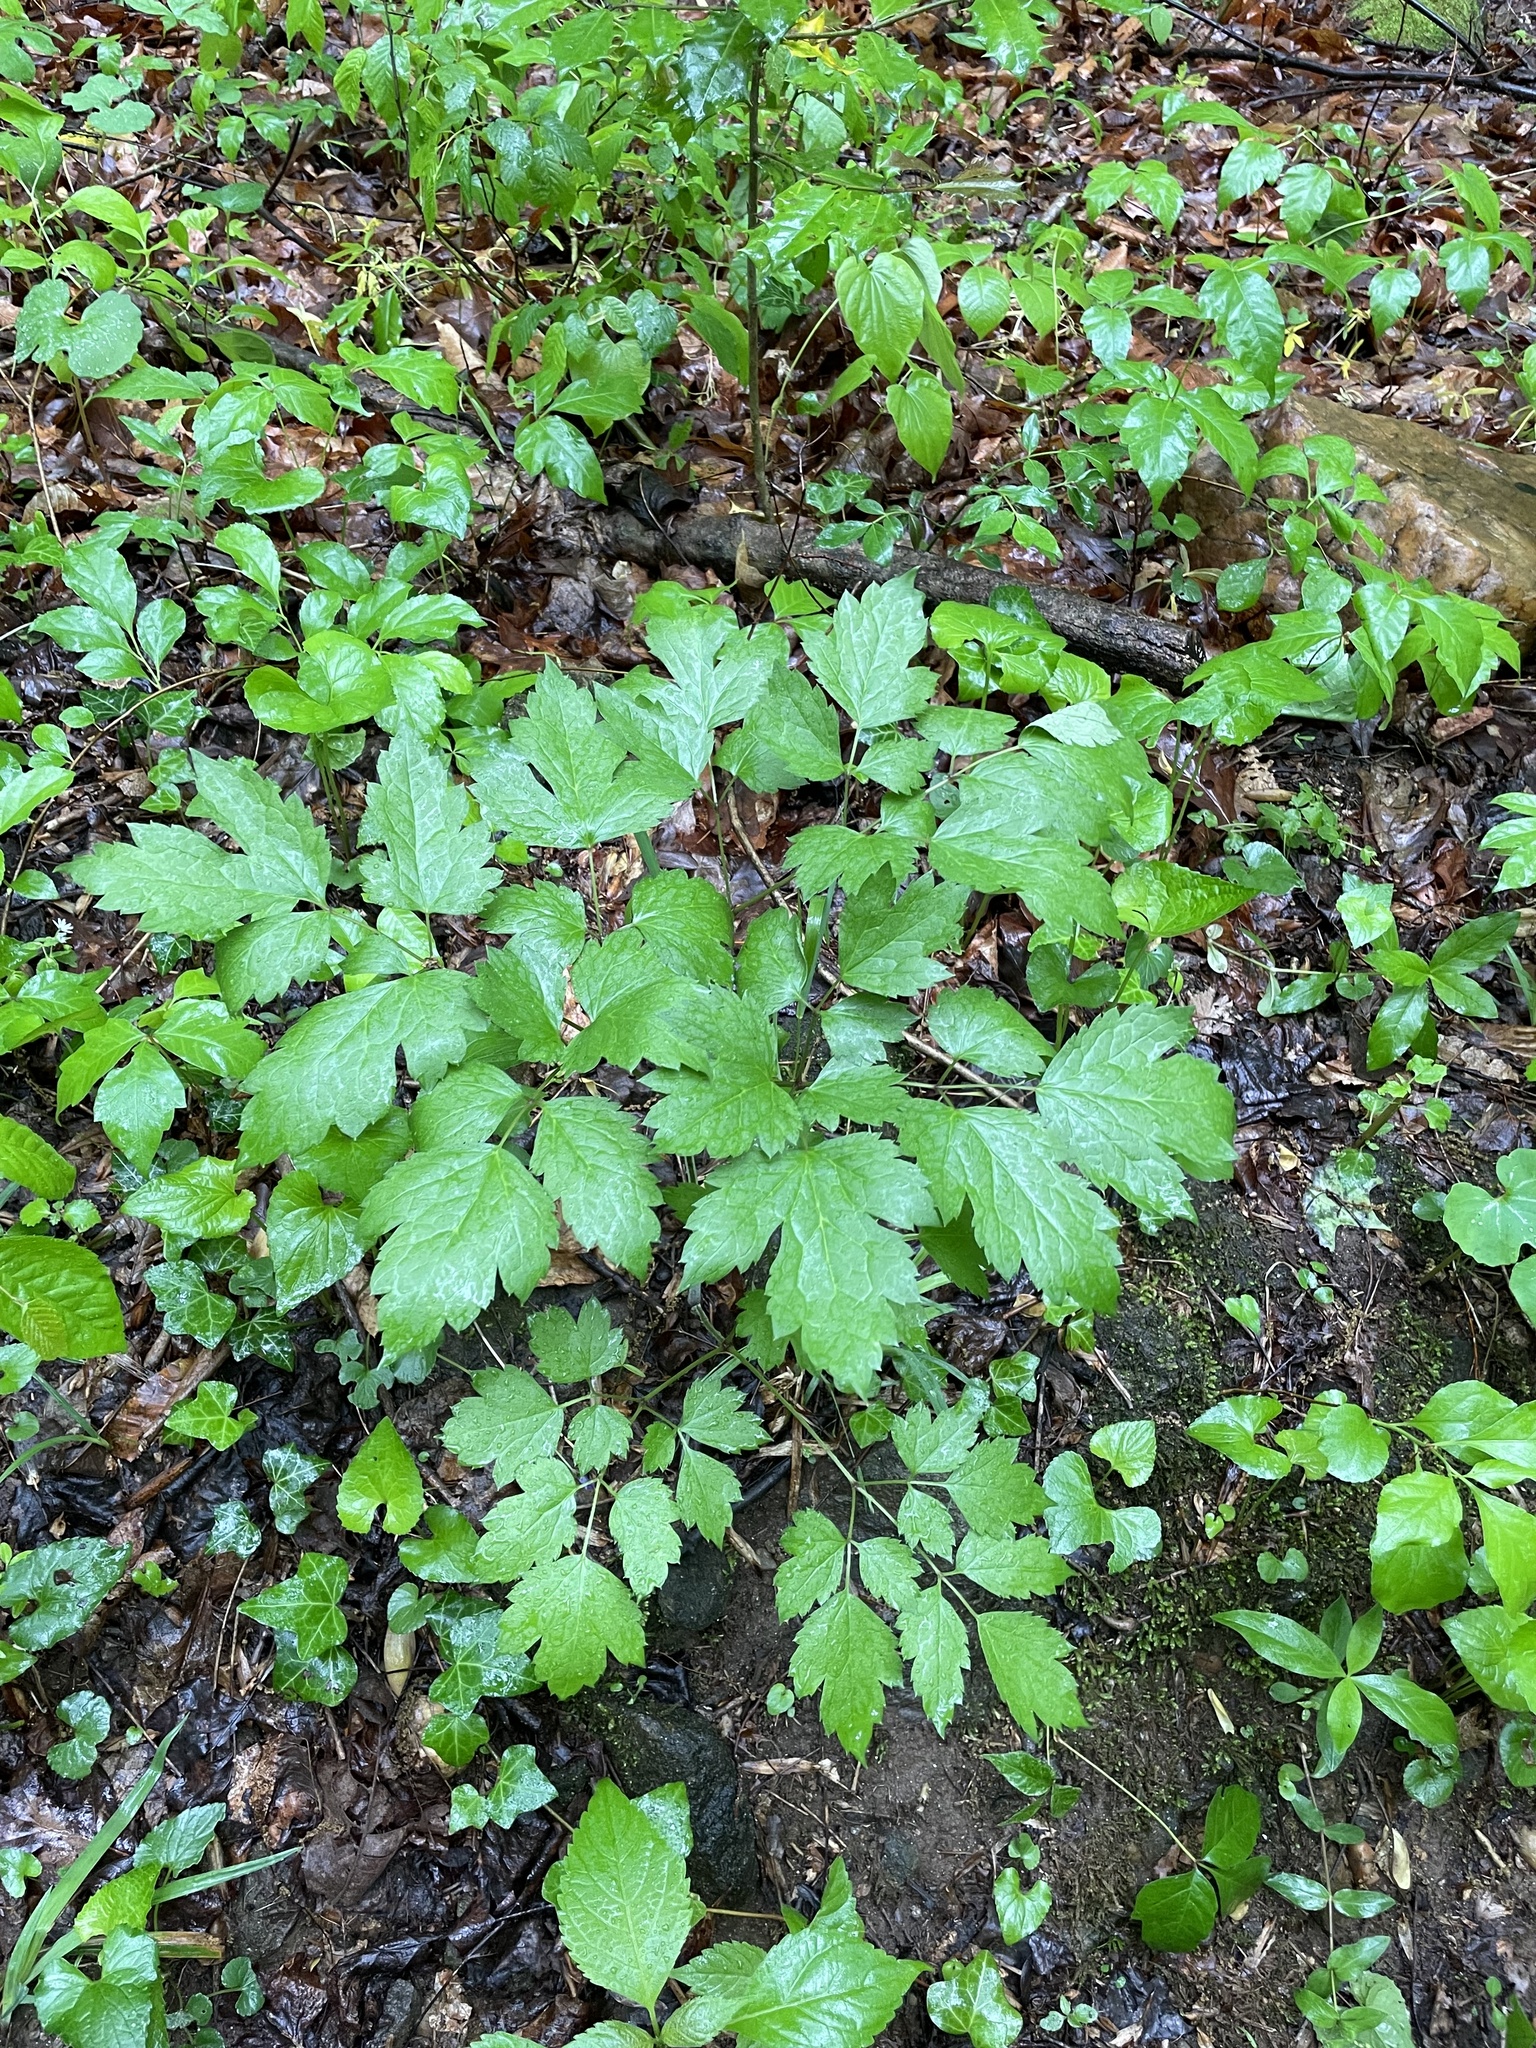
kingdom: Plantae
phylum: Tracheophyta
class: Magnoliopsida
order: Ranunculales
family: Ranunculaceae
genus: Actaea
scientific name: Actaea racemosa
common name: Black cohosh
